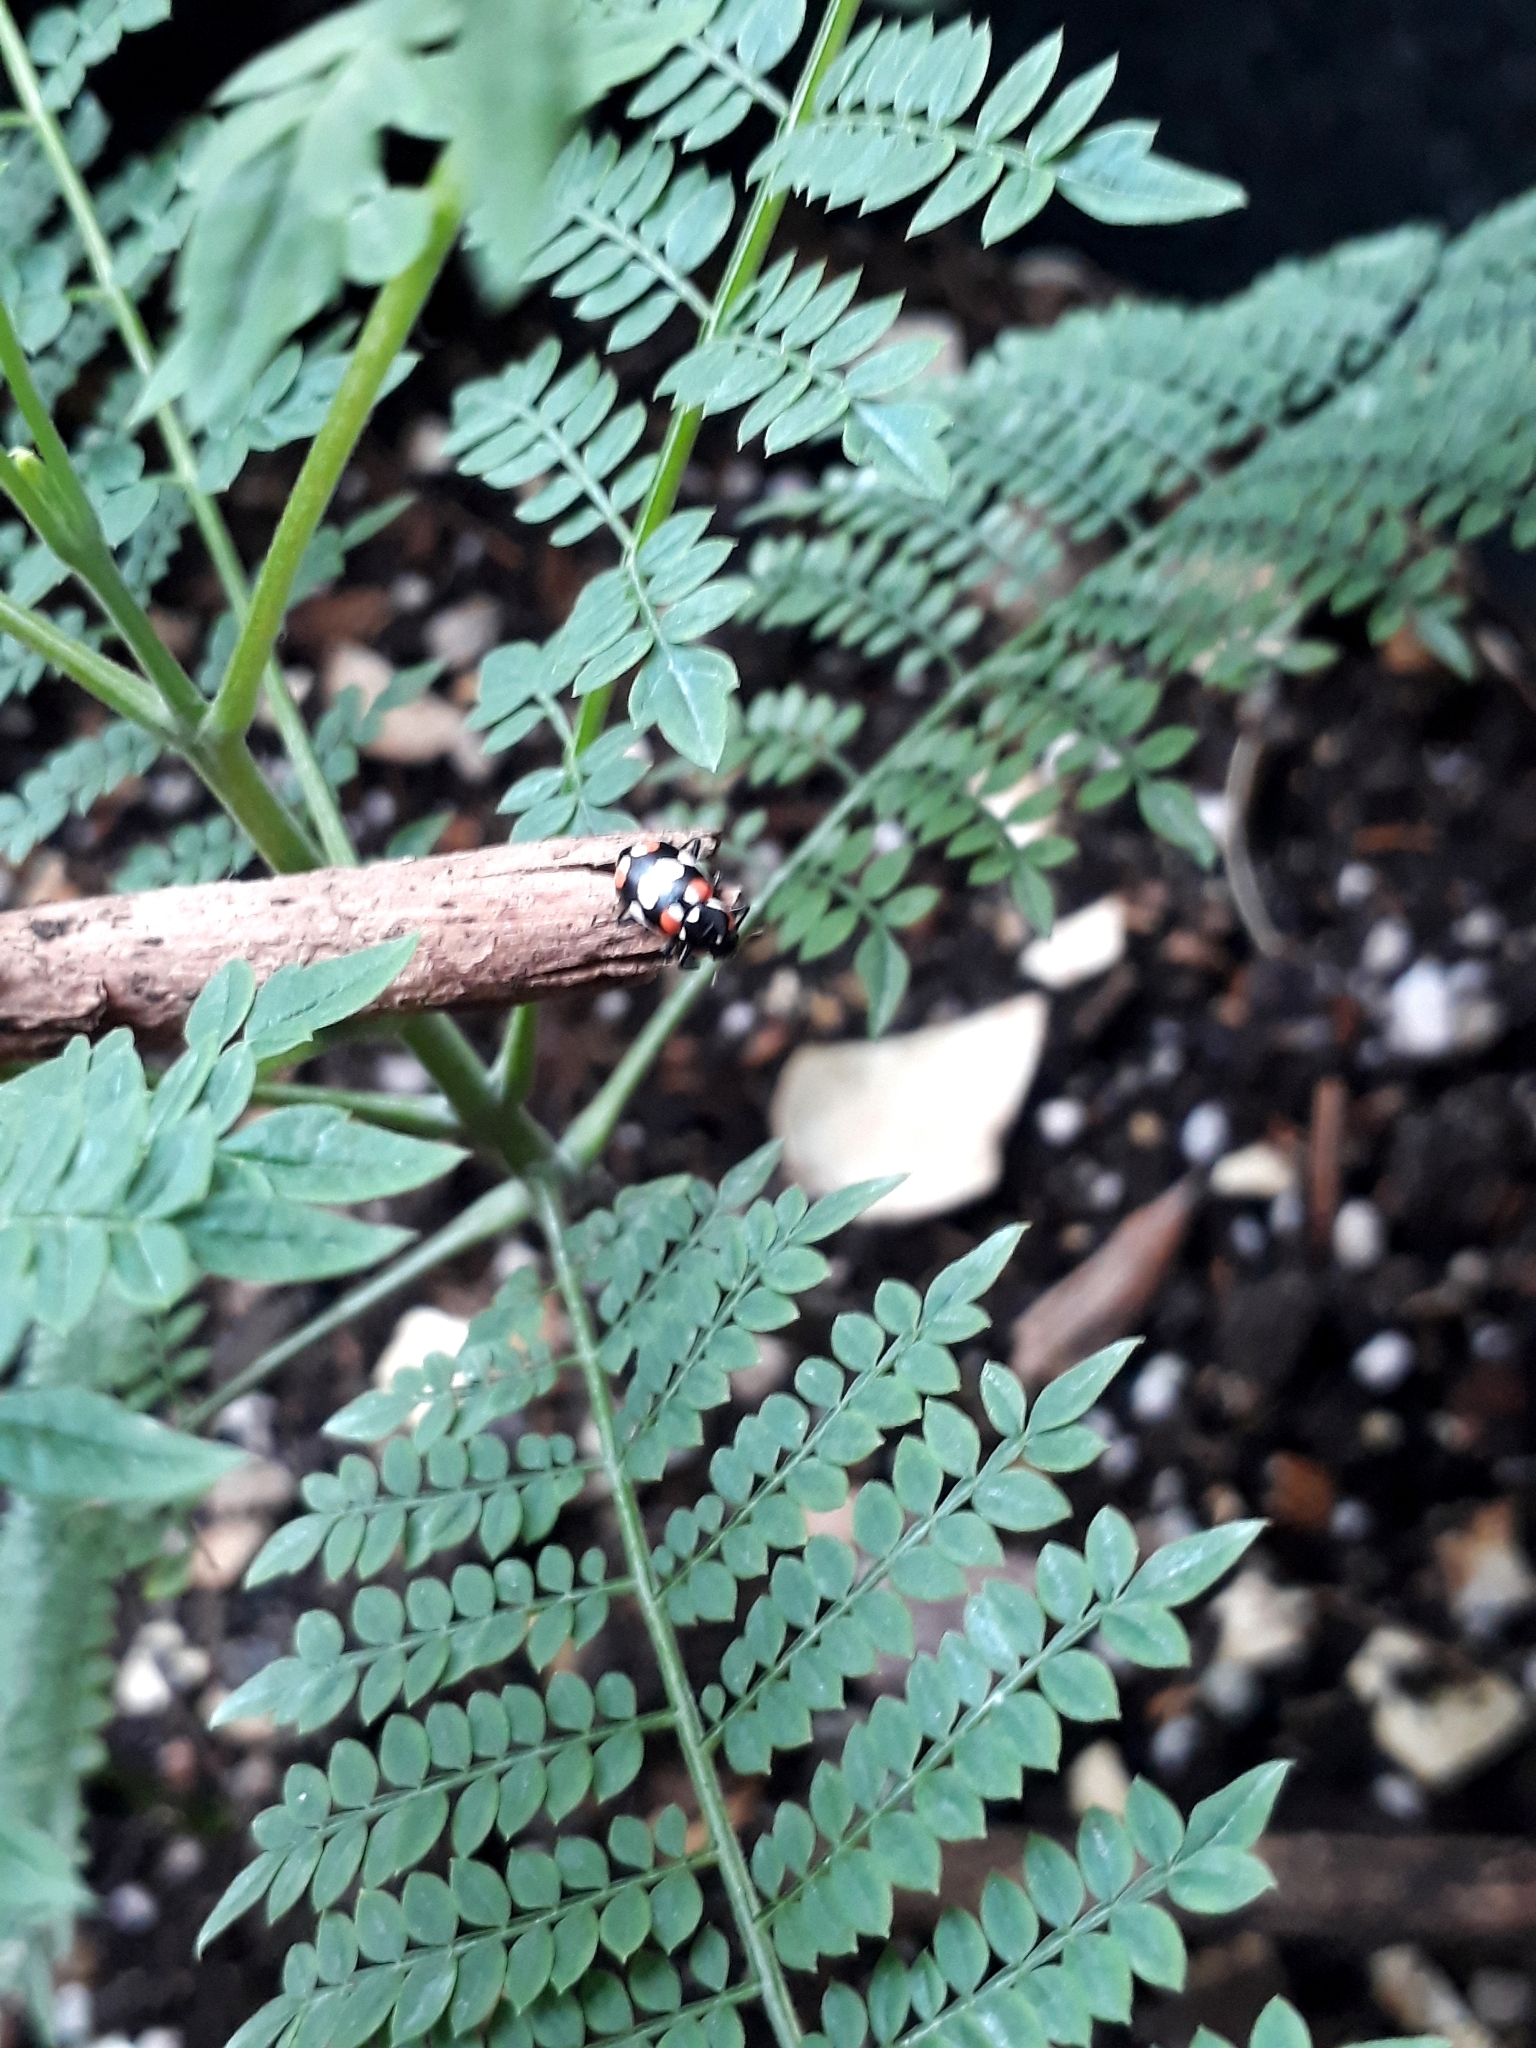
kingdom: Animalia
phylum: Arthropoda
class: Insecta
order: Coleoptera
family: Coccinellidae
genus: Eriopis
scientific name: Eriopis connexa
